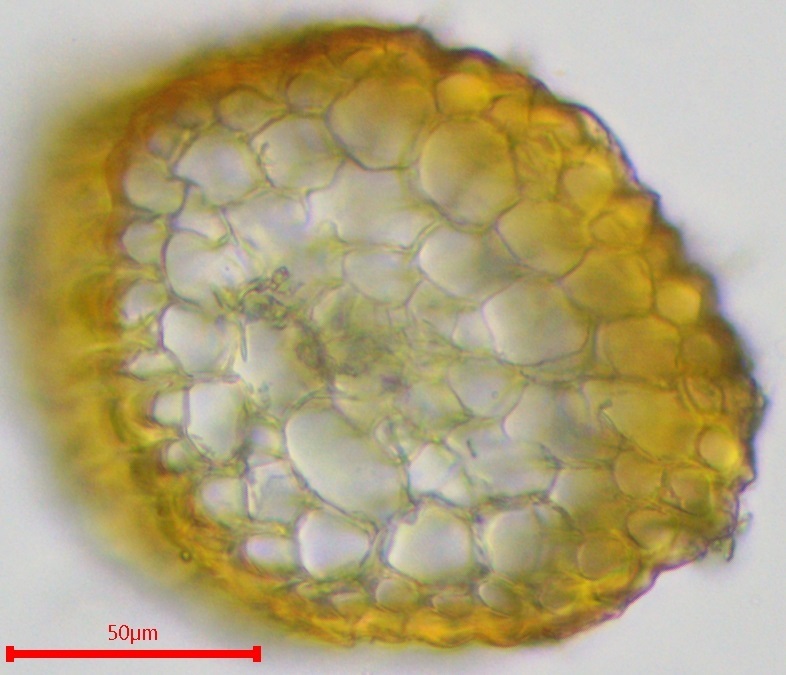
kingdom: Plantae
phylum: Bryophyta
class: Bryopsida
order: Pottiales
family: Pottiaceae
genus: Pterygoneurum
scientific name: Pterygoneurum ovatum
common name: Ovate pterygoneurum
